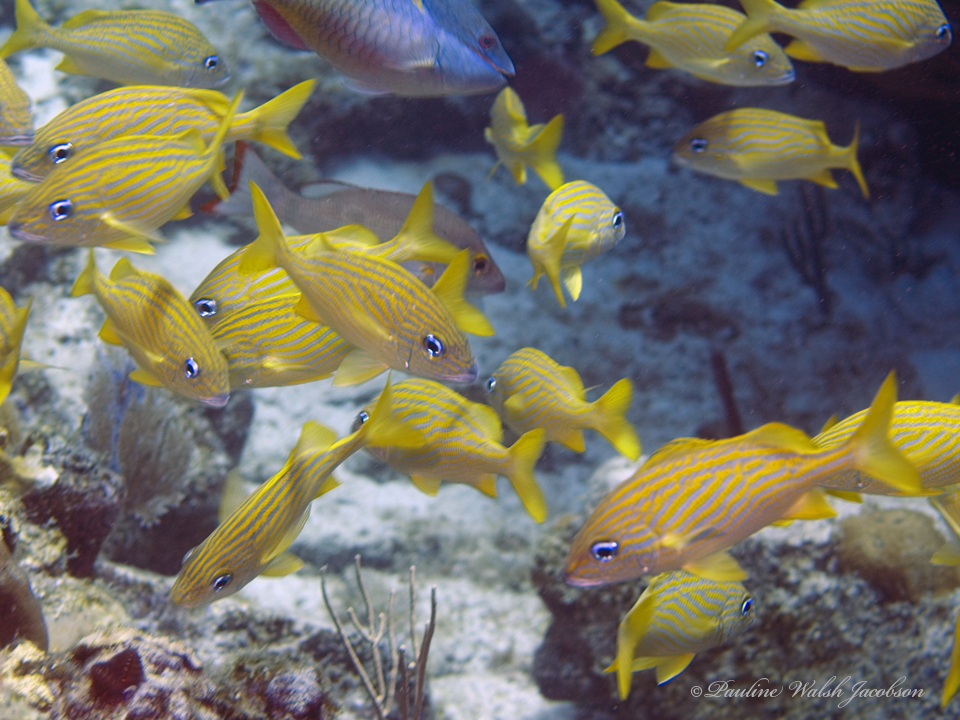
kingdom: Animalia
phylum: Chordata
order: Perciformes
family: Haemulidae
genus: Haemulon
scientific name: Haemulon flavolineatum
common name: French grunt
